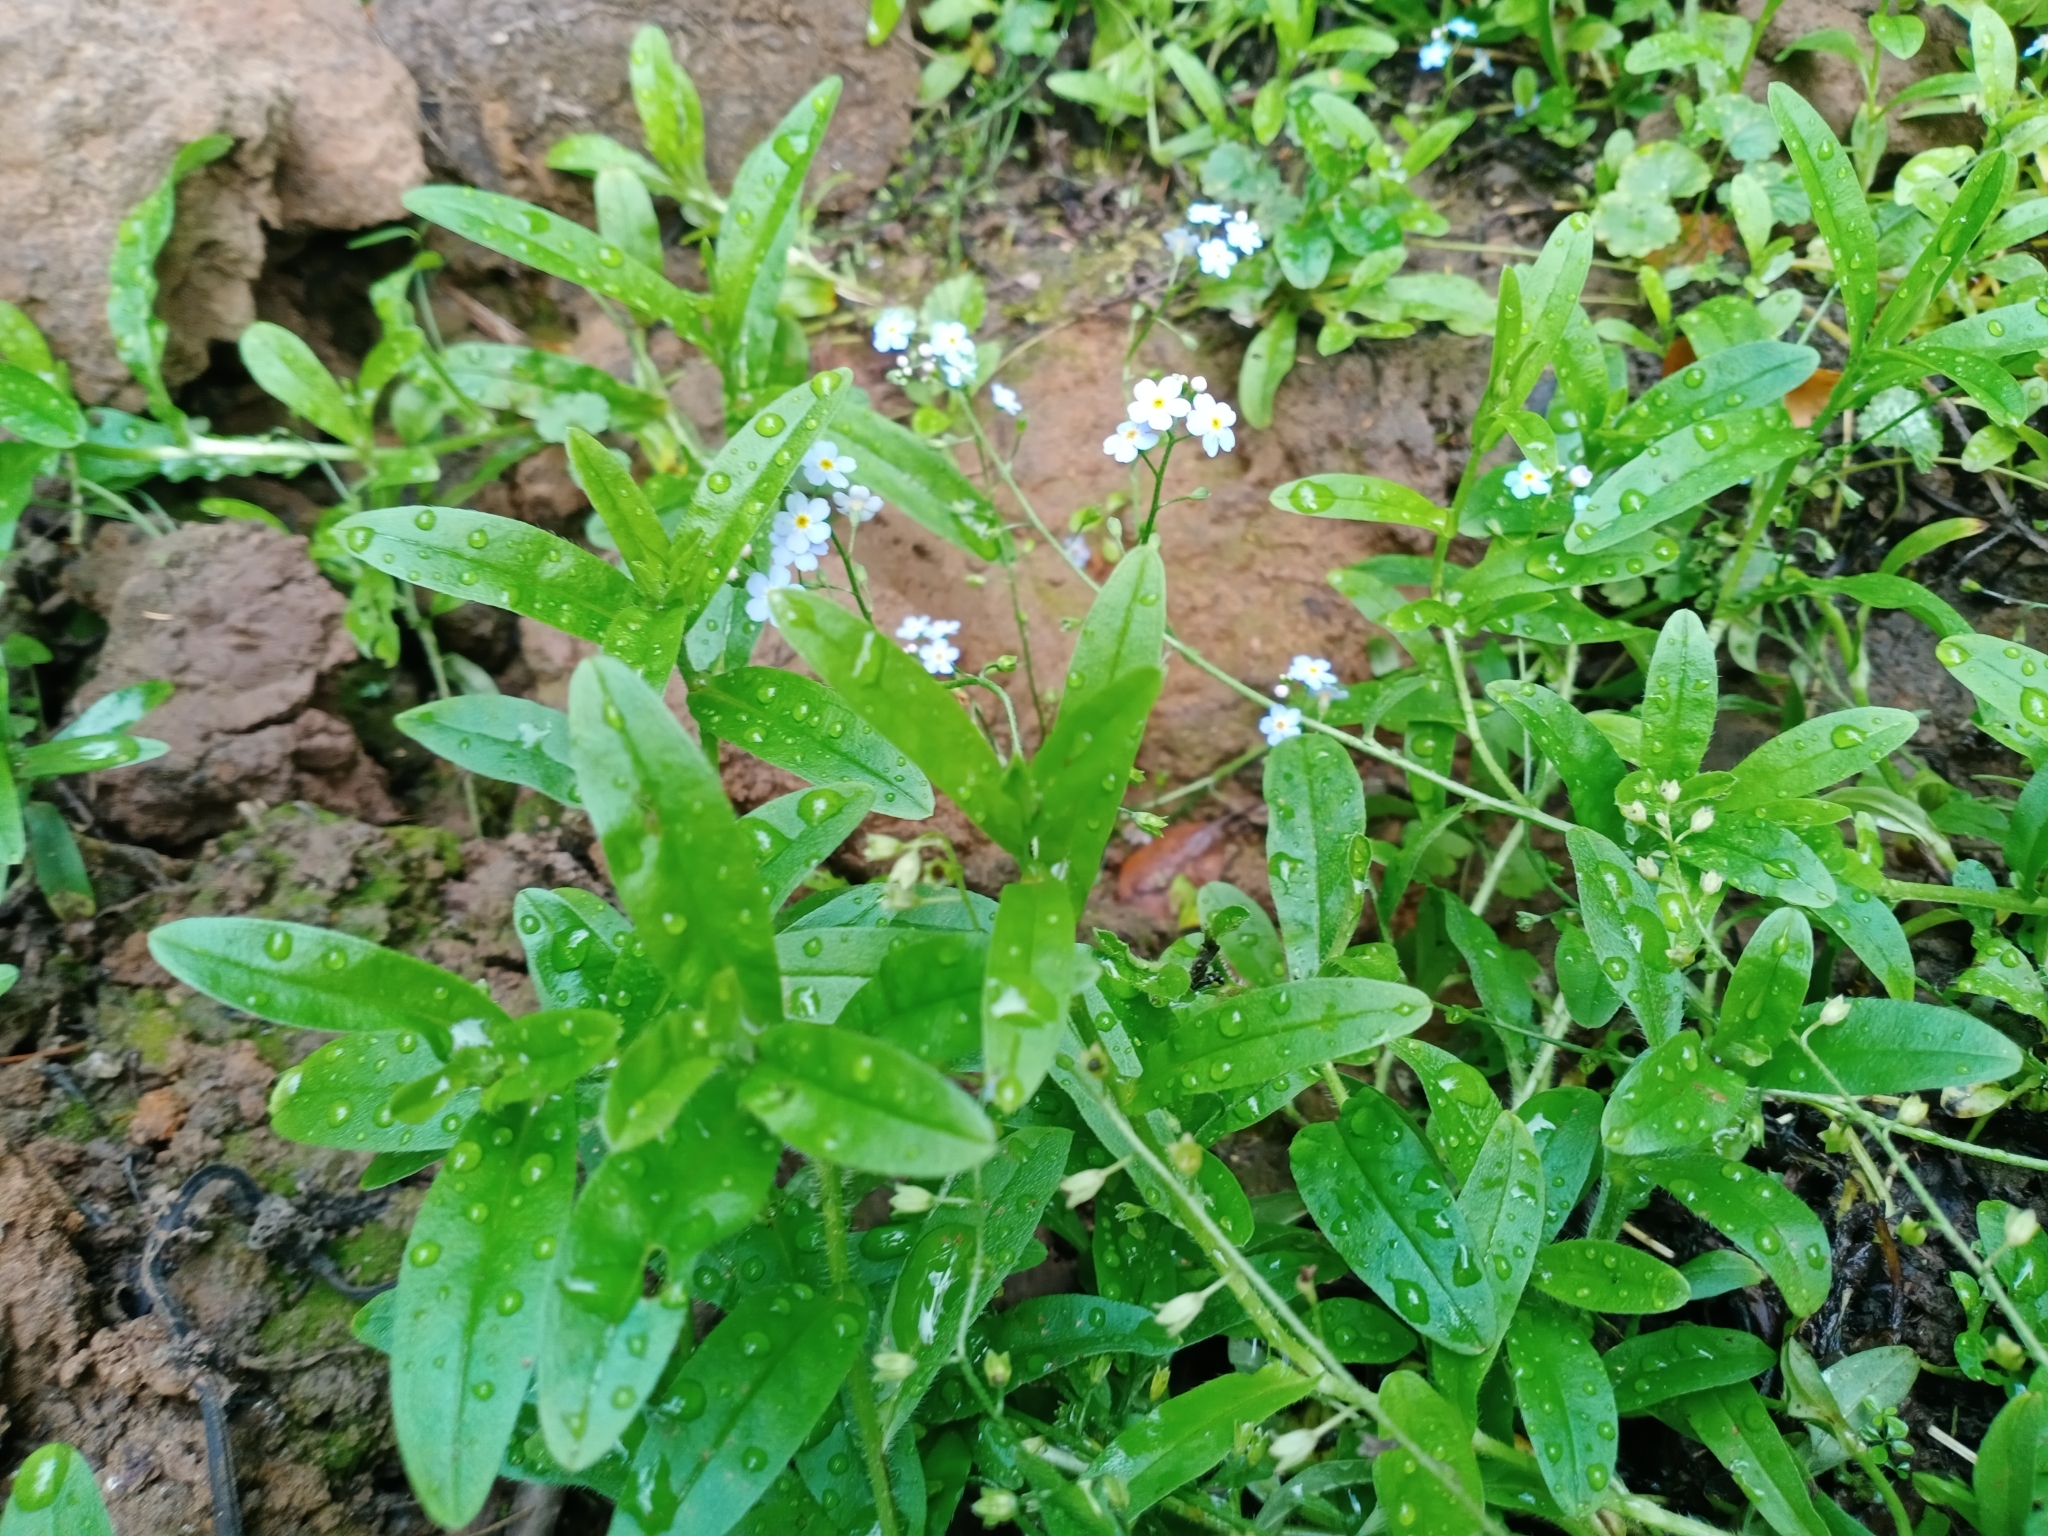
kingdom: Plantae
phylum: Tracheophyta
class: Magnoliopsida
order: Boraginales
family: Boraginaceae
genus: Myosotis
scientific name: Myosotis scorpioides
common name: Water forget-me-not
